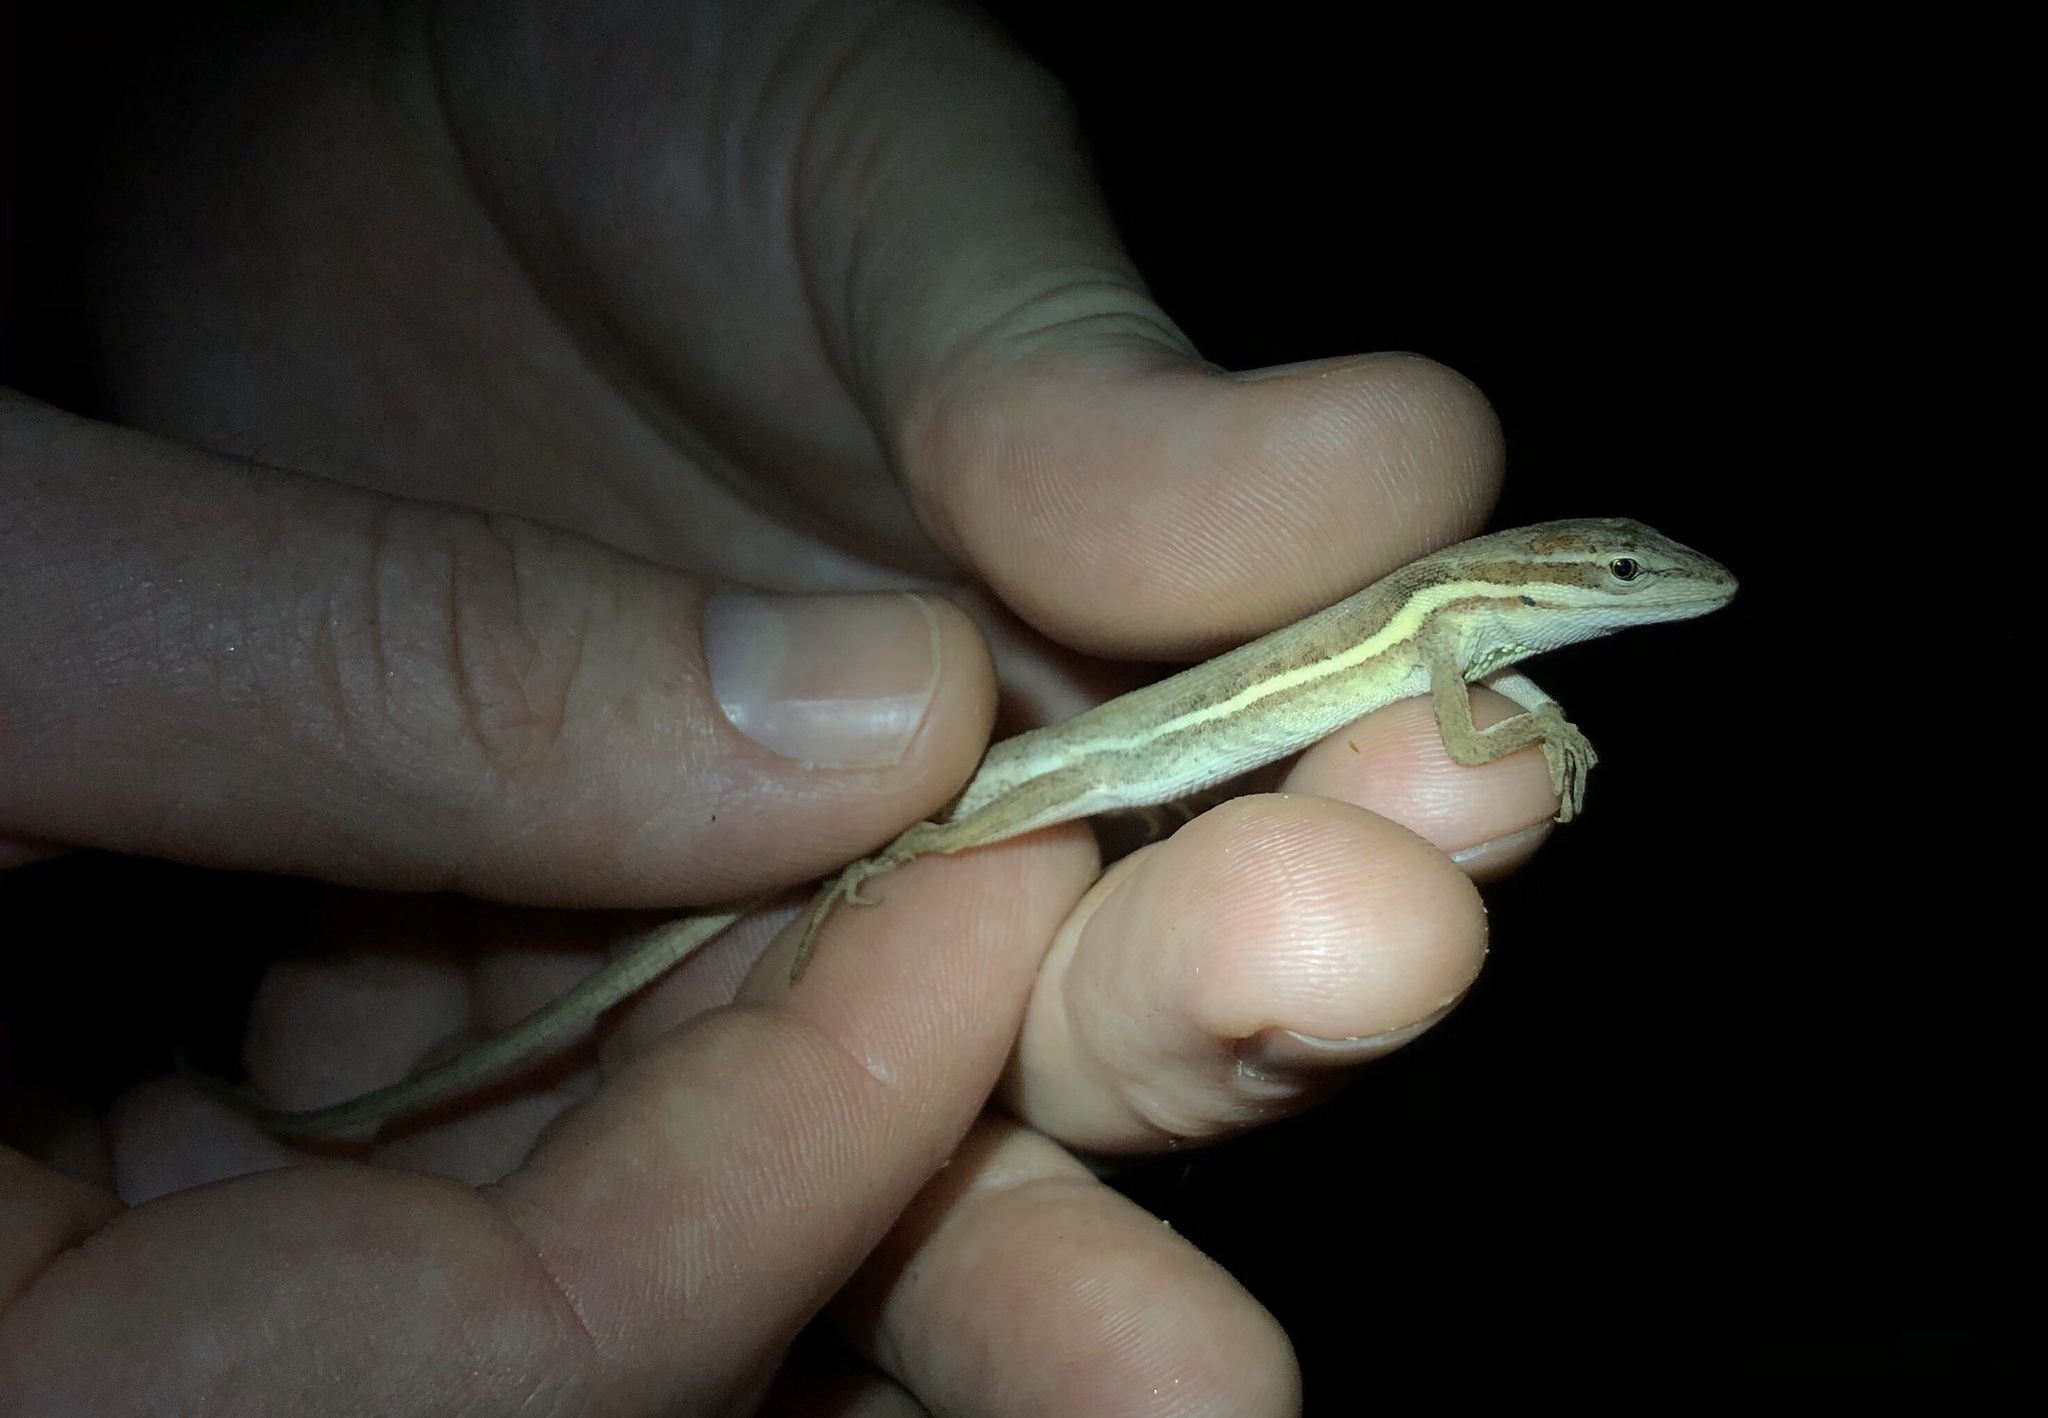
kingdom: Animalia
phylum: Chordata
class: Squamata
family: Dactyloidae
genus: Anolis
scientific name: Anolis auratus
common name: Grass anole
